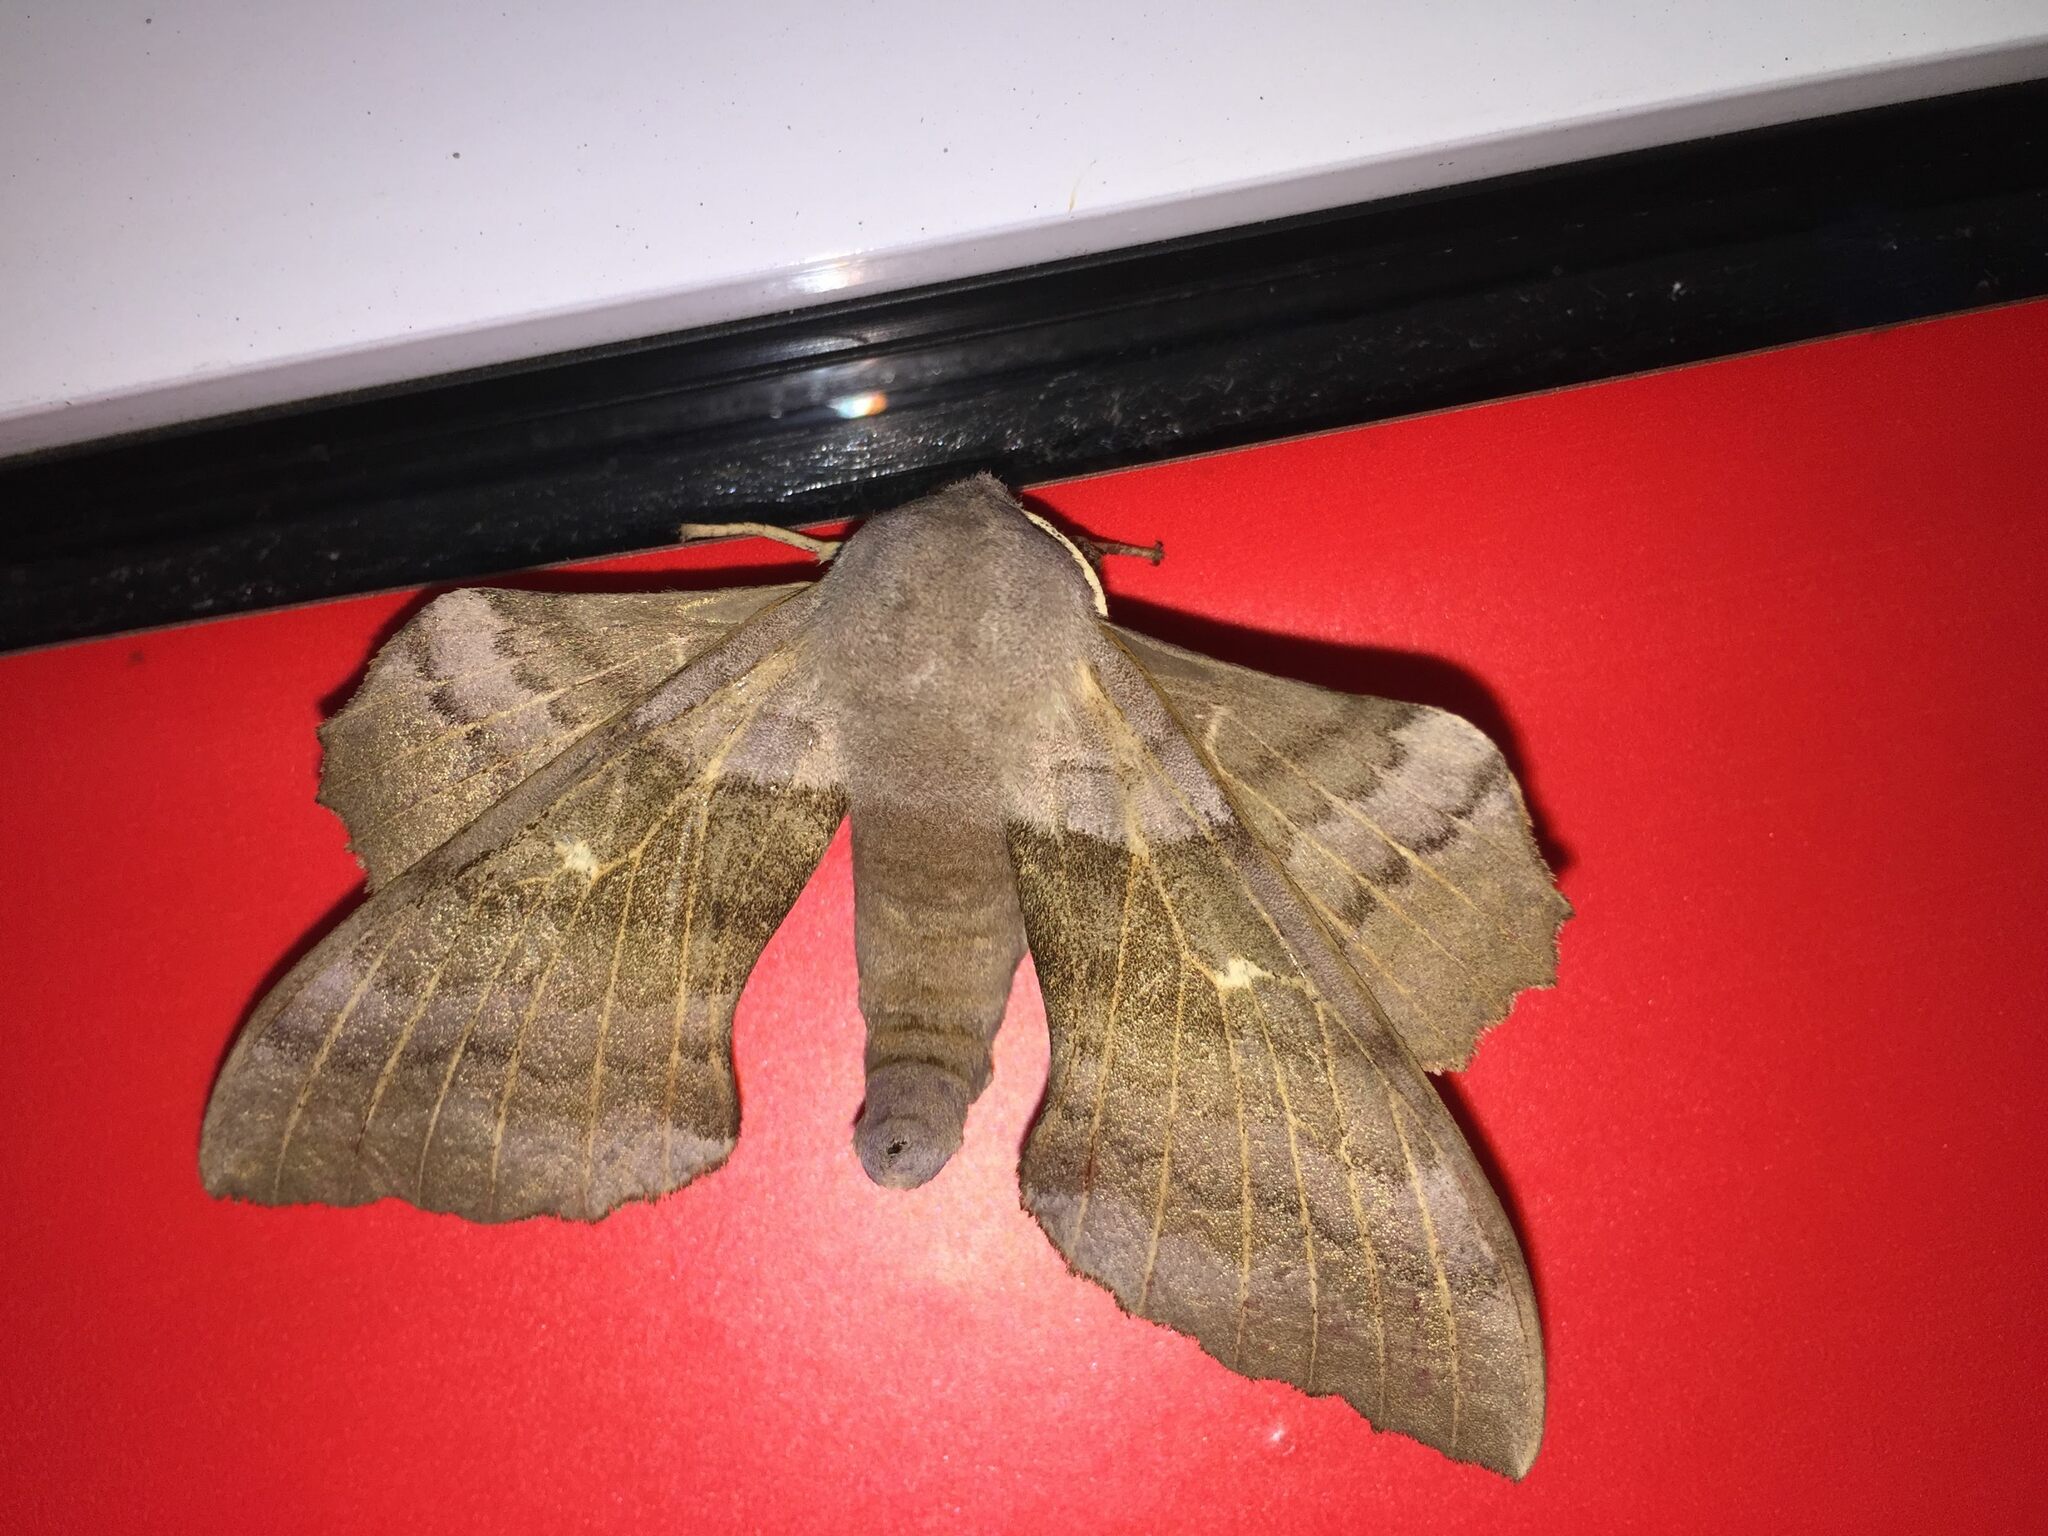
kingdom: Animalia
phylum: Arthropoda
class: Insecta
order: Lepidoptera
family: Sphingidae
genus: Laothoe
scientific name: Laothoe populi
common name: Poplar hawk-moth
